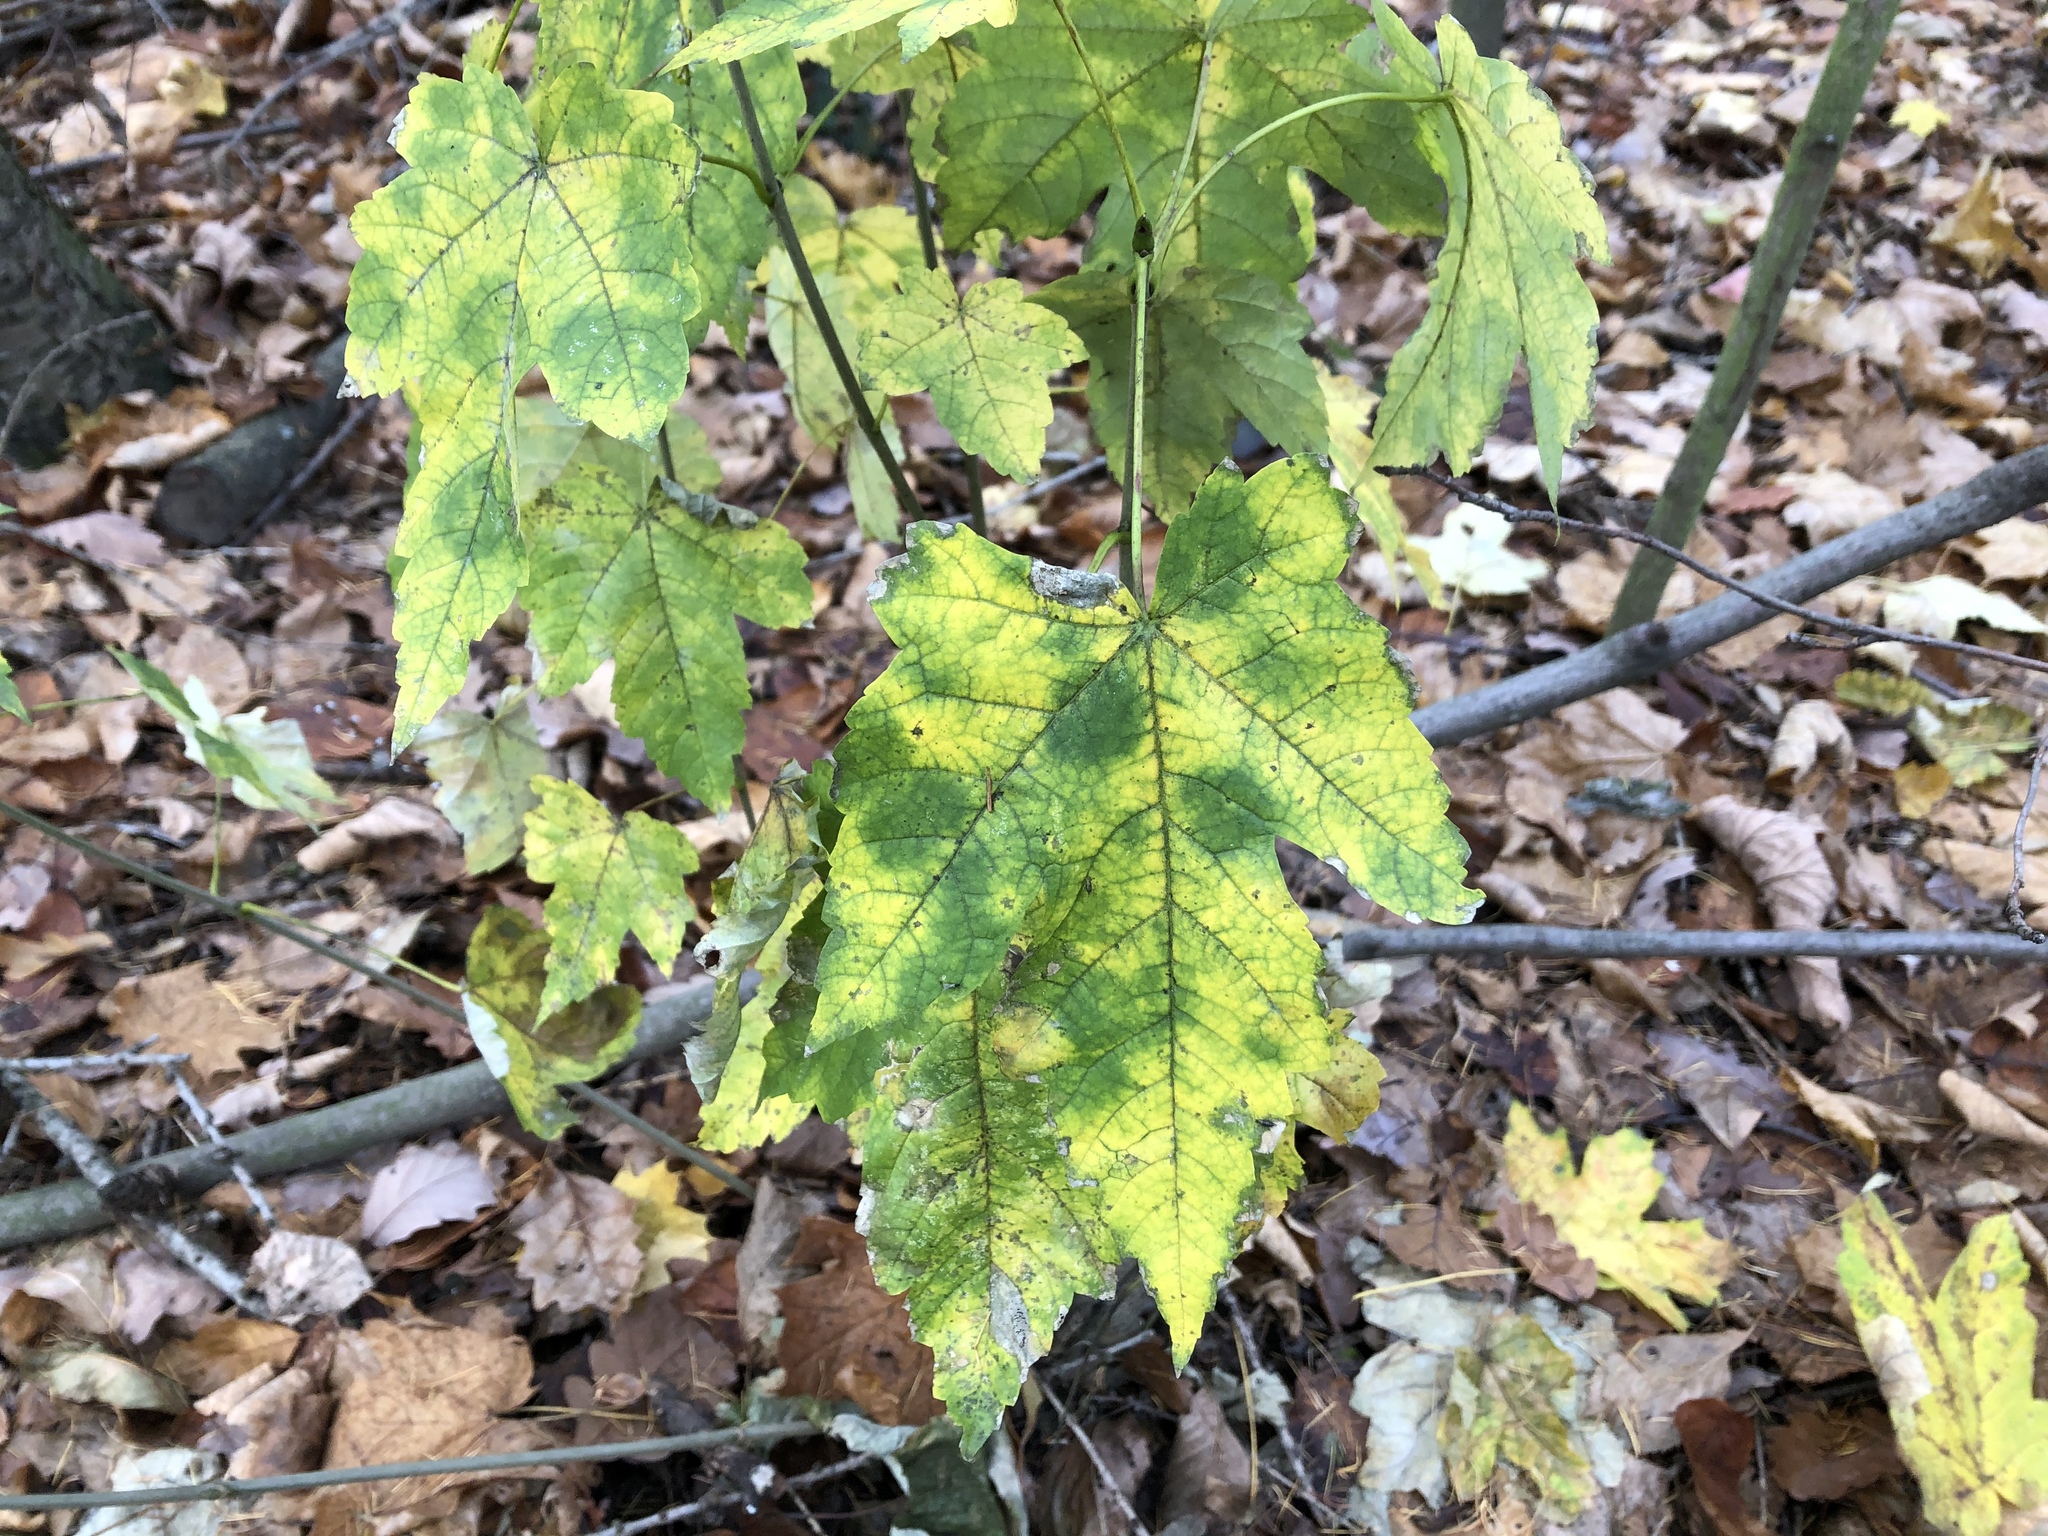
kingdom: Plantae
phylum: Tracheophyta
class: Magnoliopsida
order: Sapindales
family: Sapindaceae
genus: Acer
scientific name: Acer pseudoplatanus
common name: Sycamore
